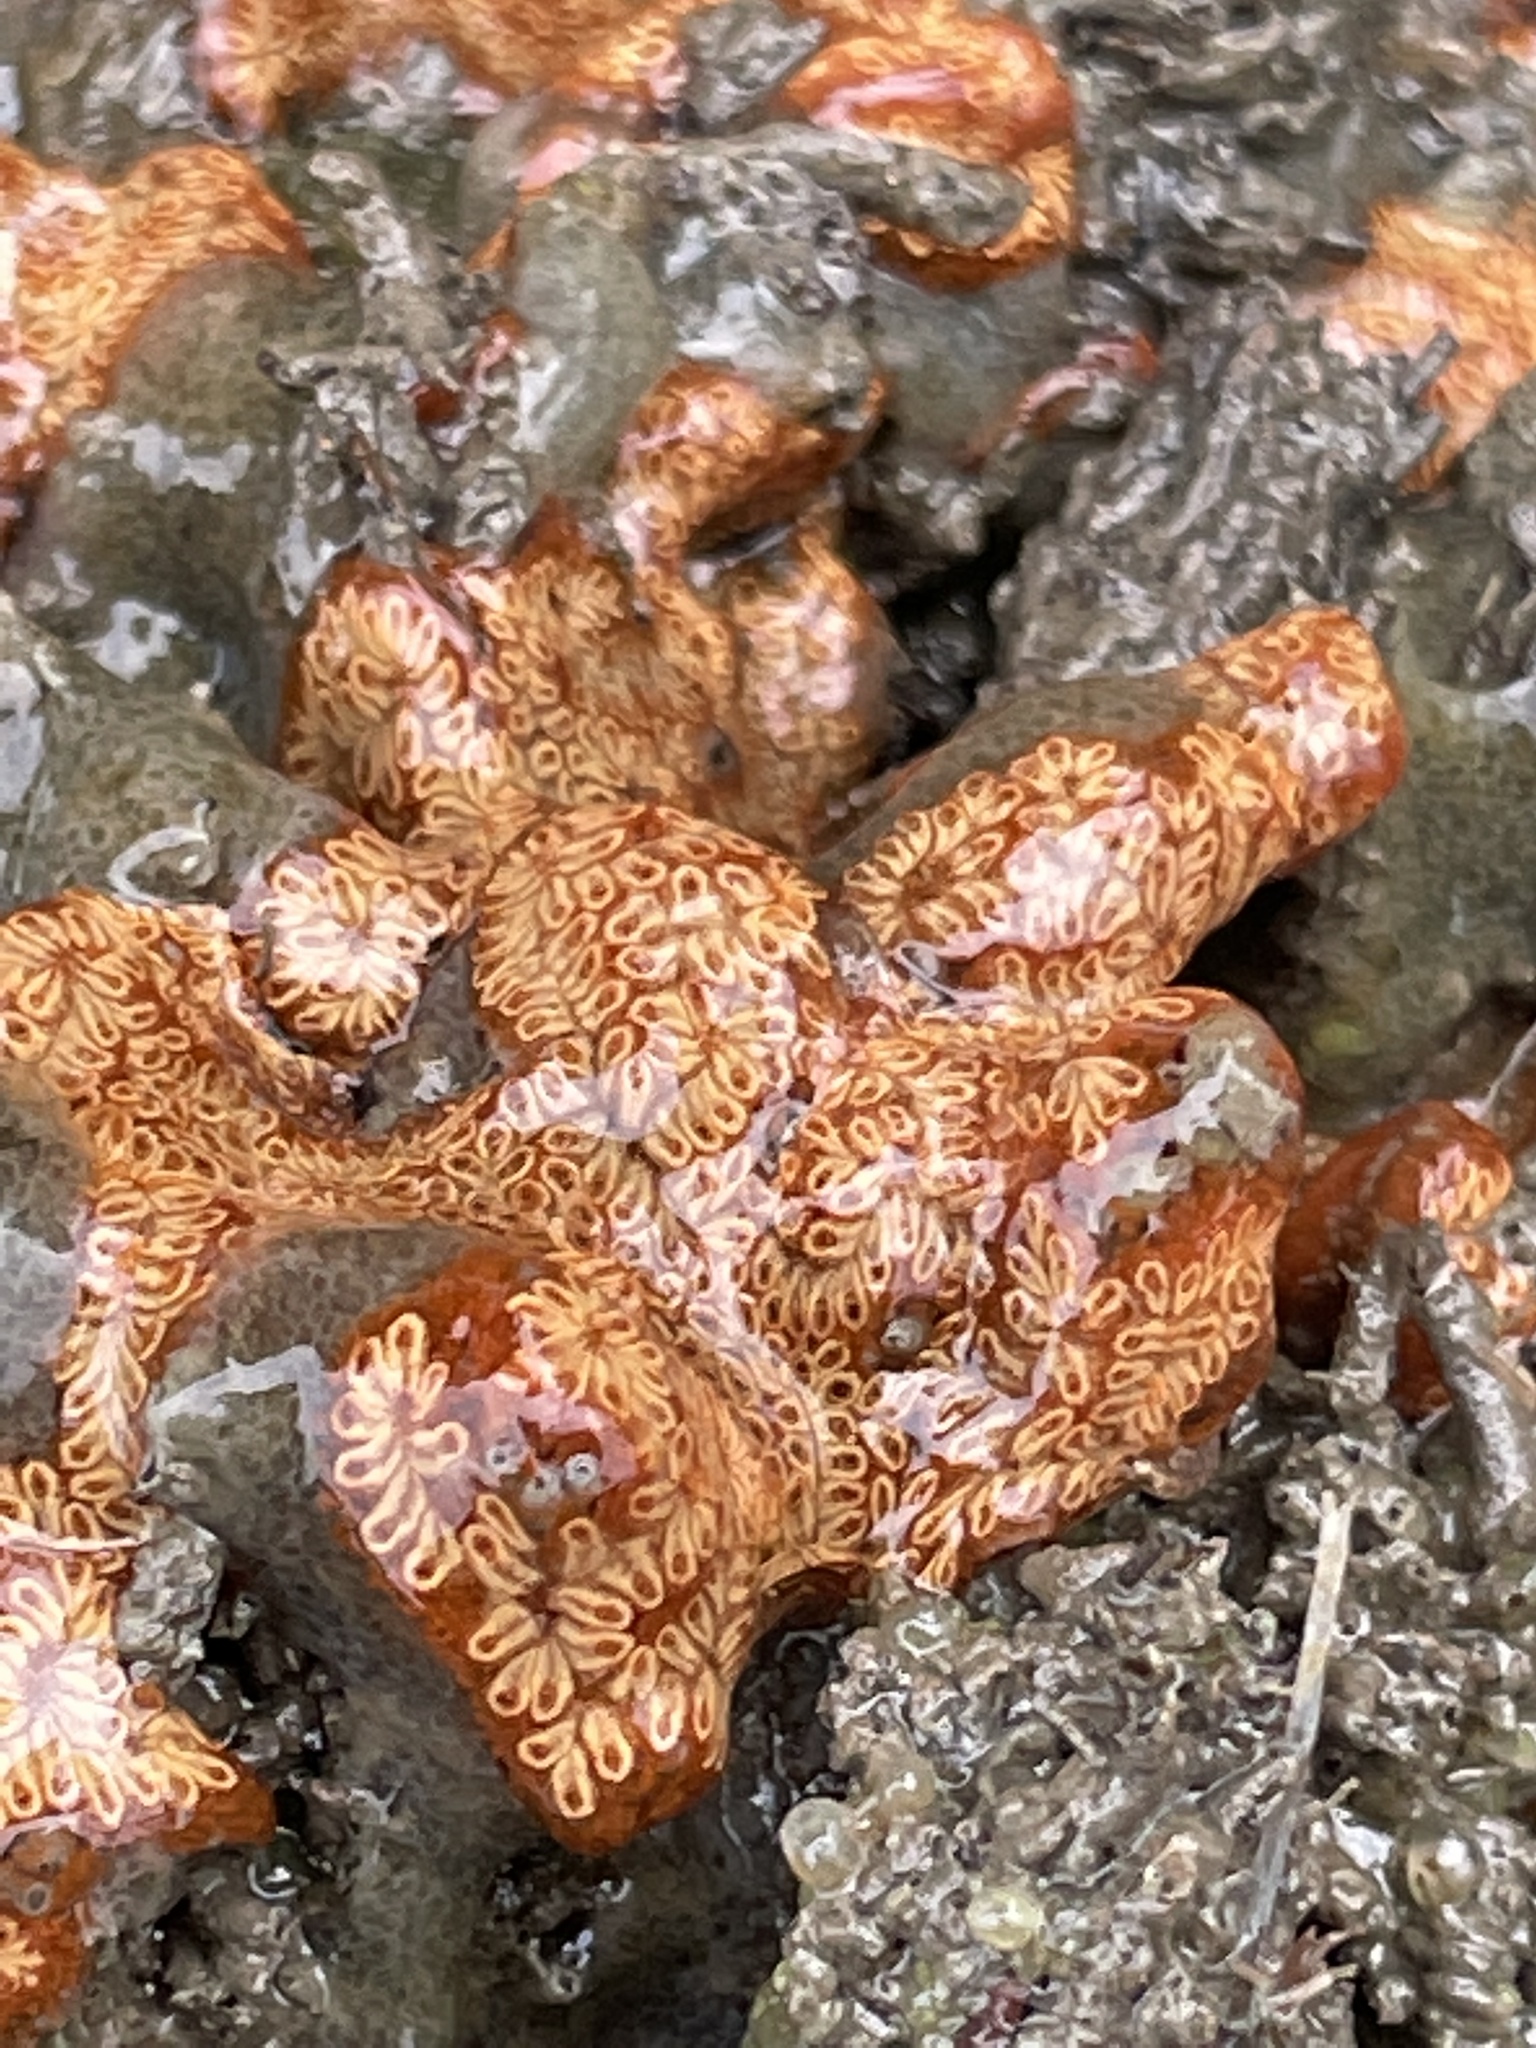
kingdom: Animalia
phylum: Chordata
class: Ascidiacea
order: Stolidobranchia
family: Styelidae
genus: Botrylloides
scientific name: Botrylloides niger
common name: Black synascidia
